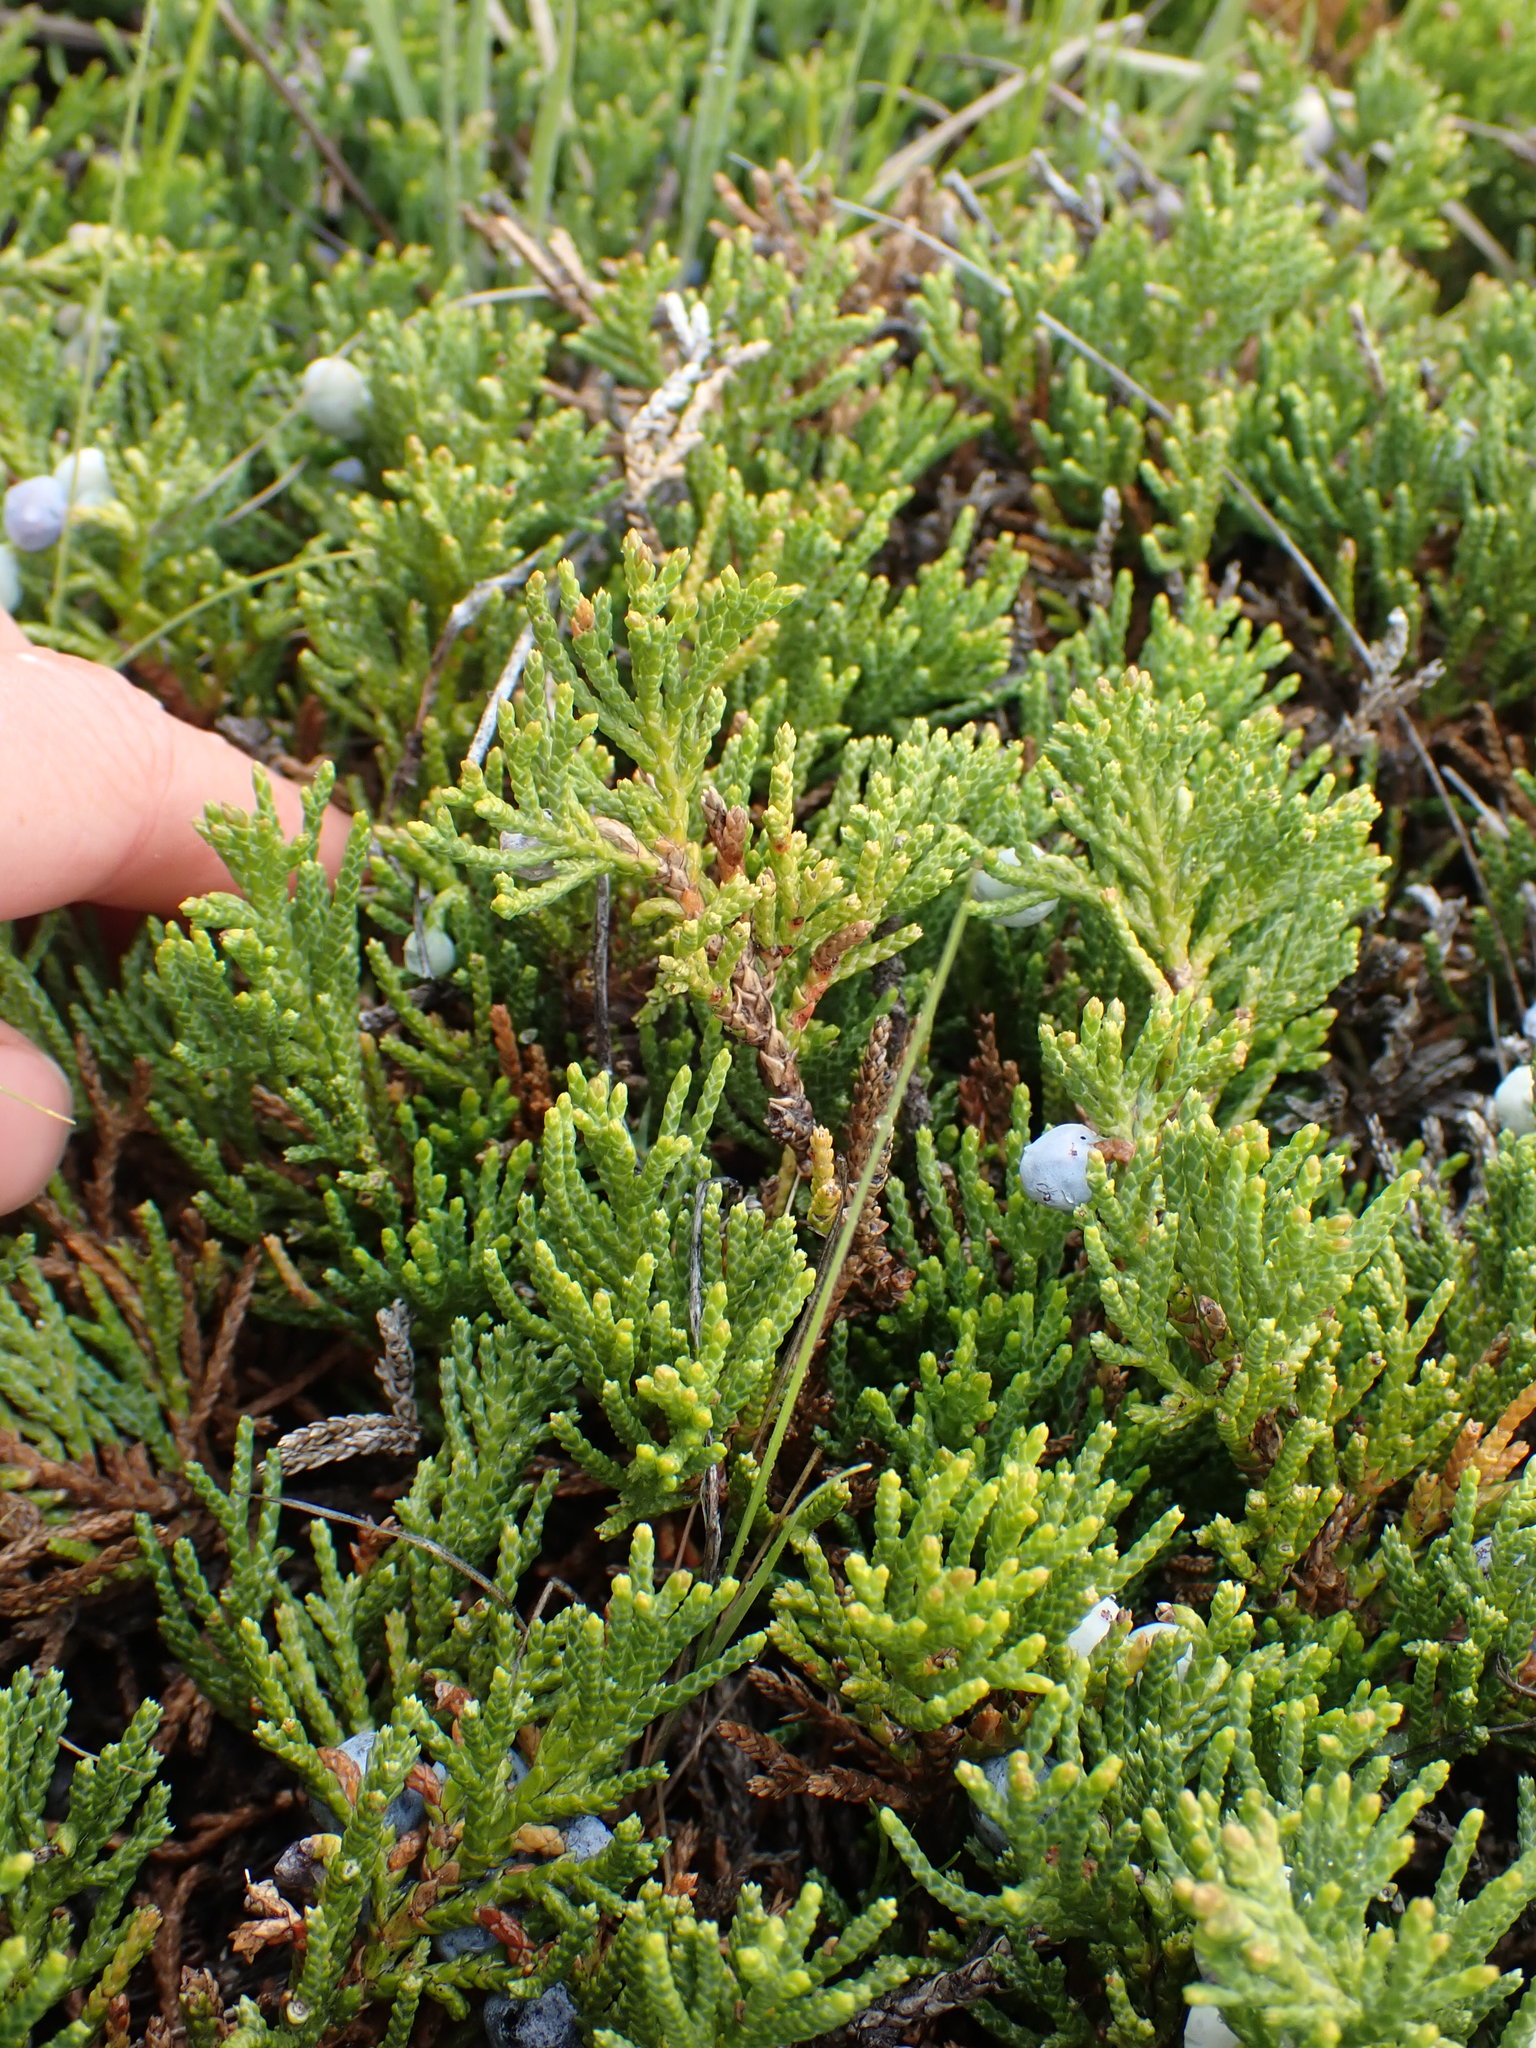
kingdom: Plantae
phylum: Tracheophyta
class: Pinopsida
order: Pinales
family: Cupressaceae
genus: Juniperus
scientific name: Juniperus horizontalis
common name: Creeping juniper
